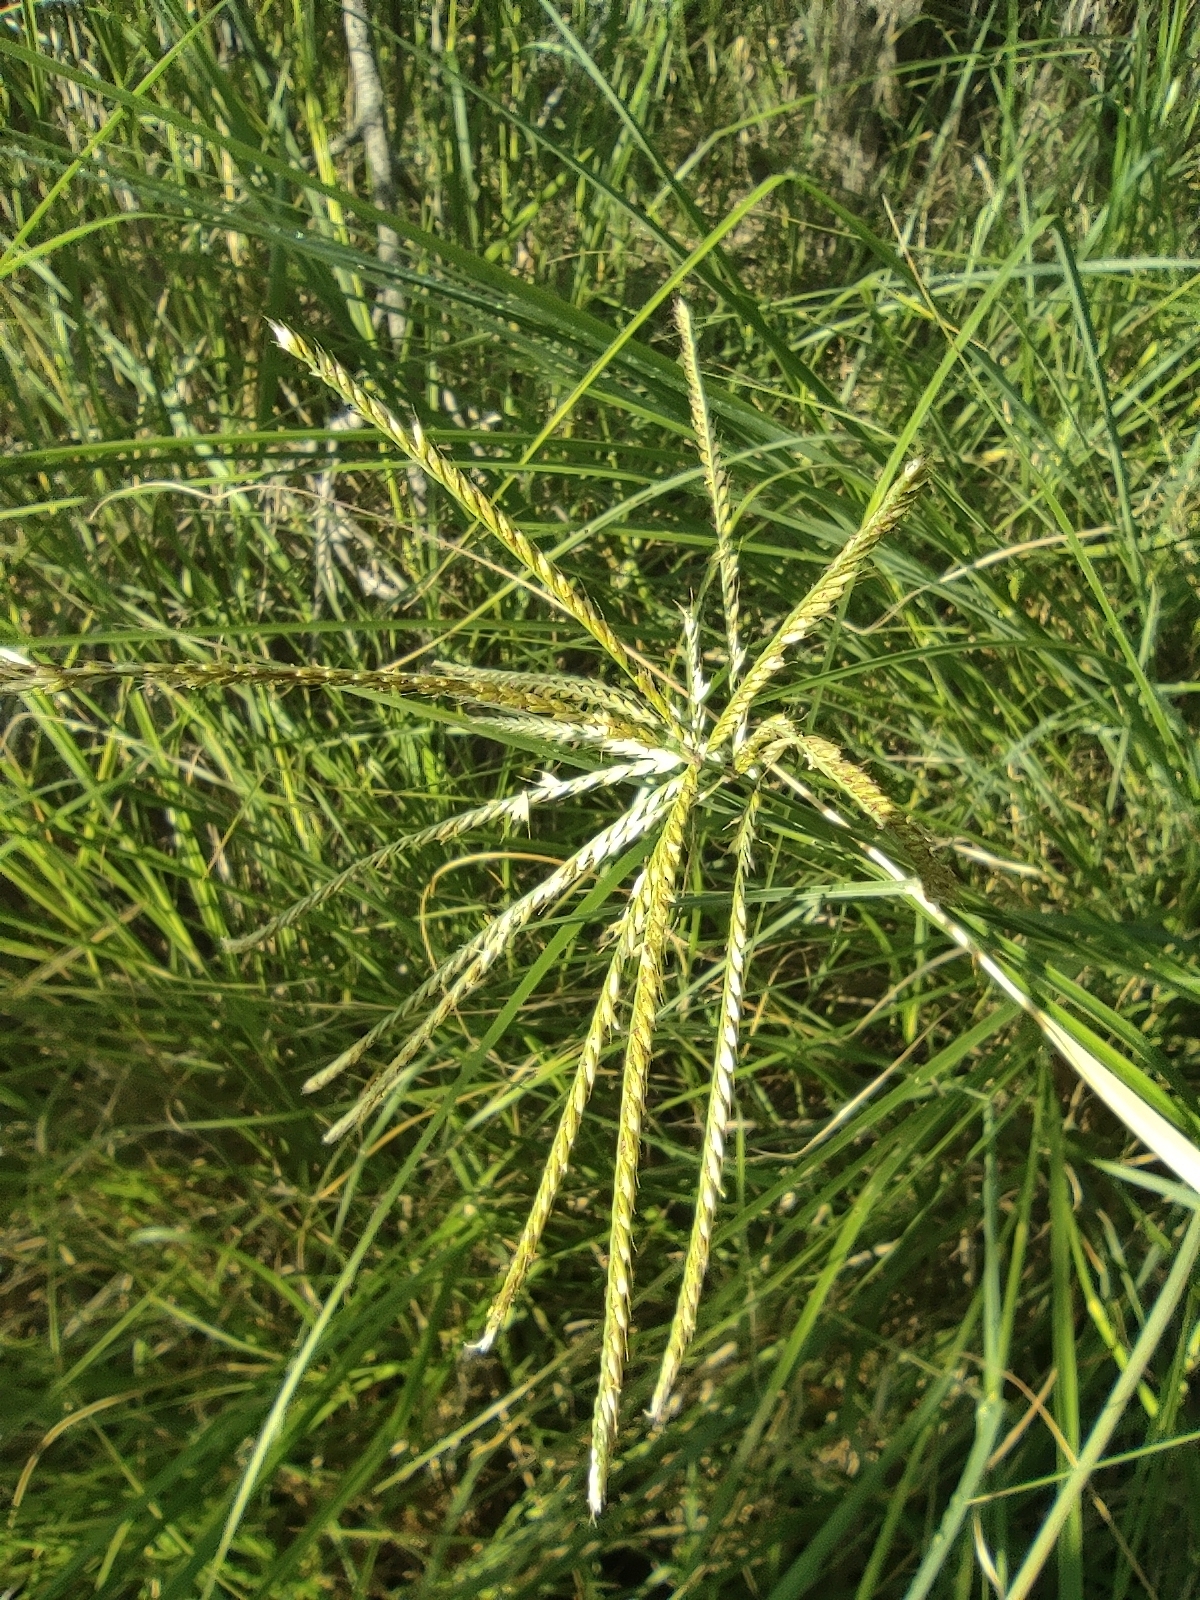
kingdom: Plantae
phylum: Tracheophyta
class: Liliopsida
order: Poales
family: Poaceae
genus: Chloris
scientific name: Chloris gayana
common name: Rhodes grass
